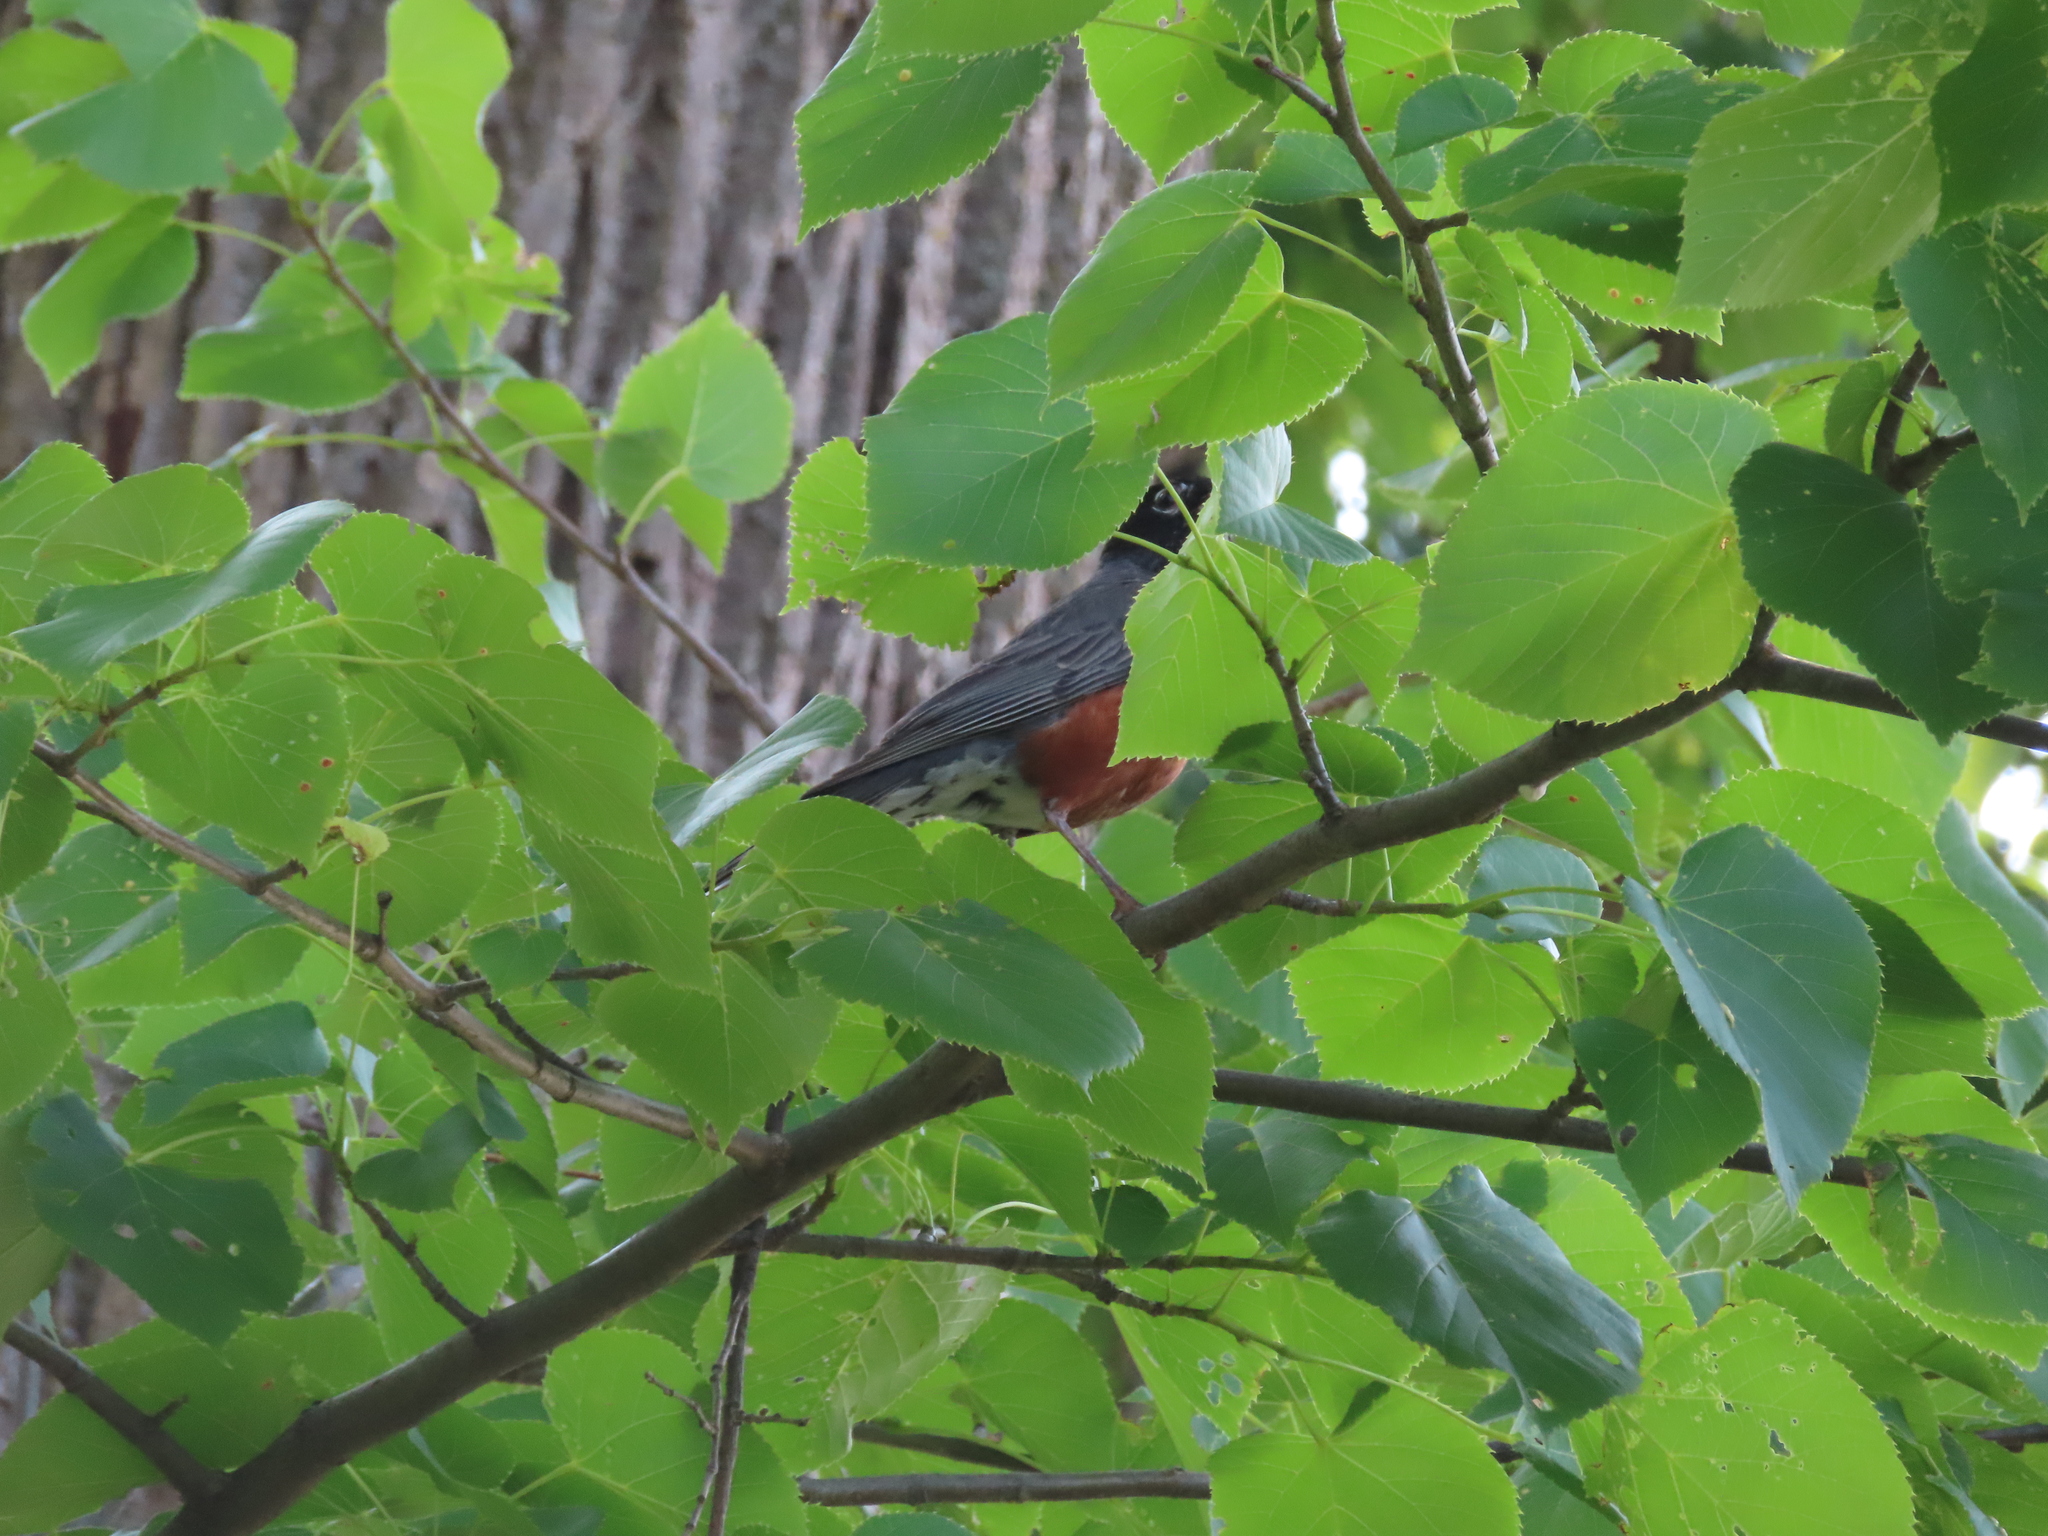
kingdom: Animalia
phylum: Chordata
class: Aves
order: Passeriformes
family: Turdidae
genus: Turdus
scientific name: Turdus migratorius
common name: American robin
